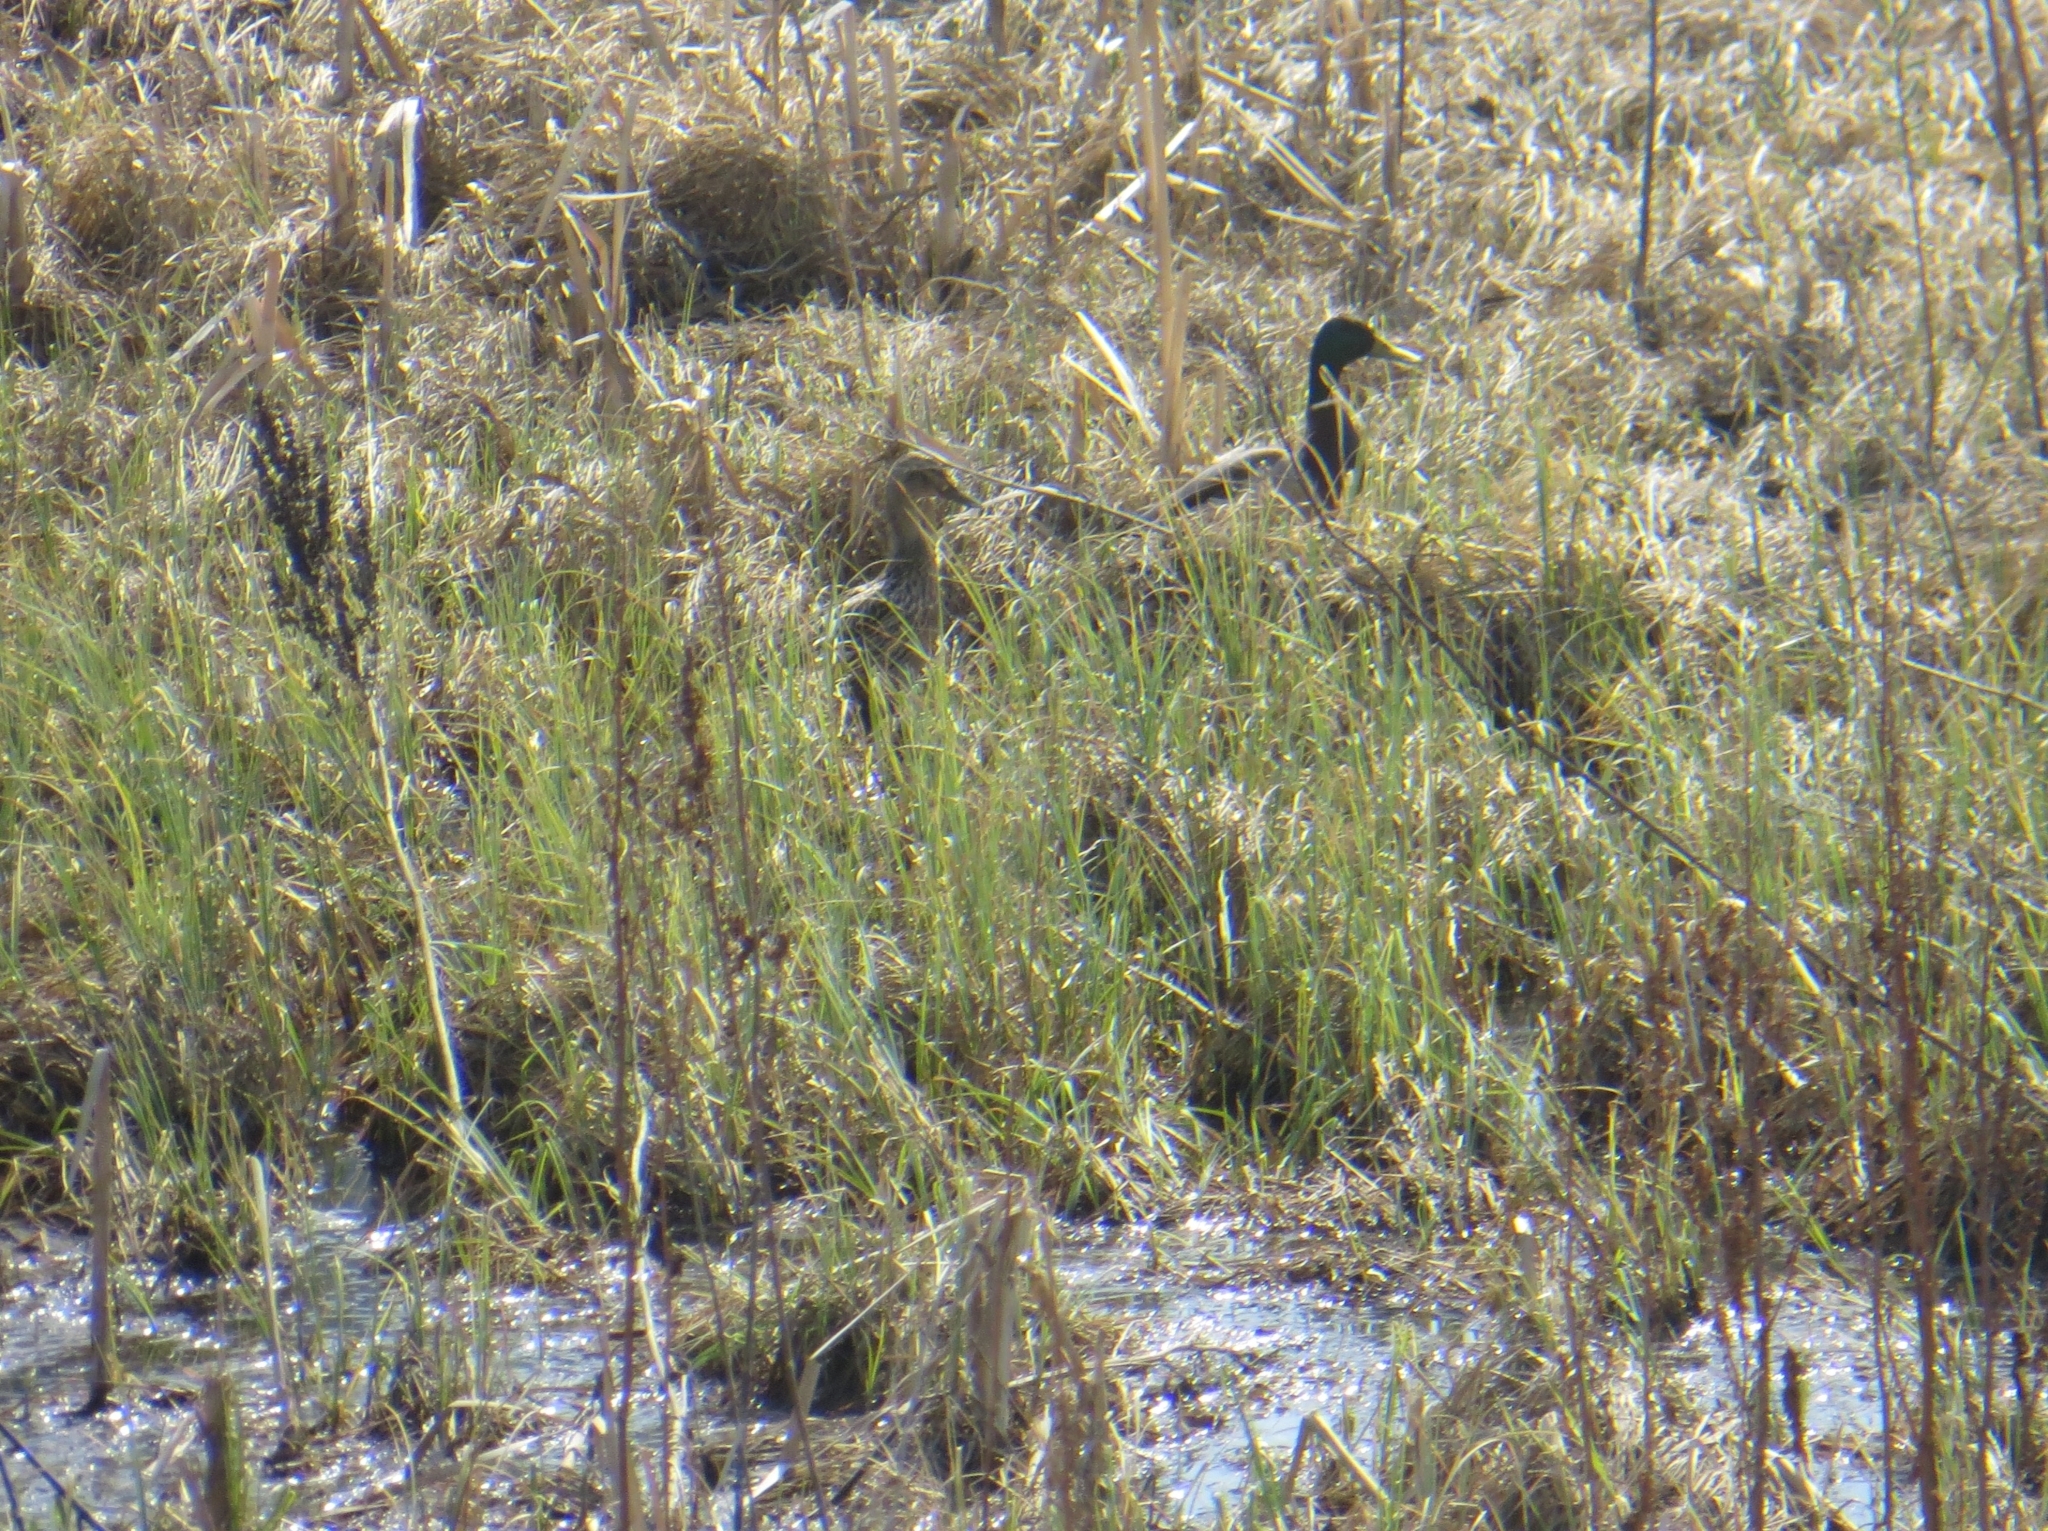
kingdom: Animalia
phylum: Chordata
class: Aves
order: Anseriformes
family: Anatidae
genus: Anas
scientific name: Anas platyrhynchos
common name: Mallard
